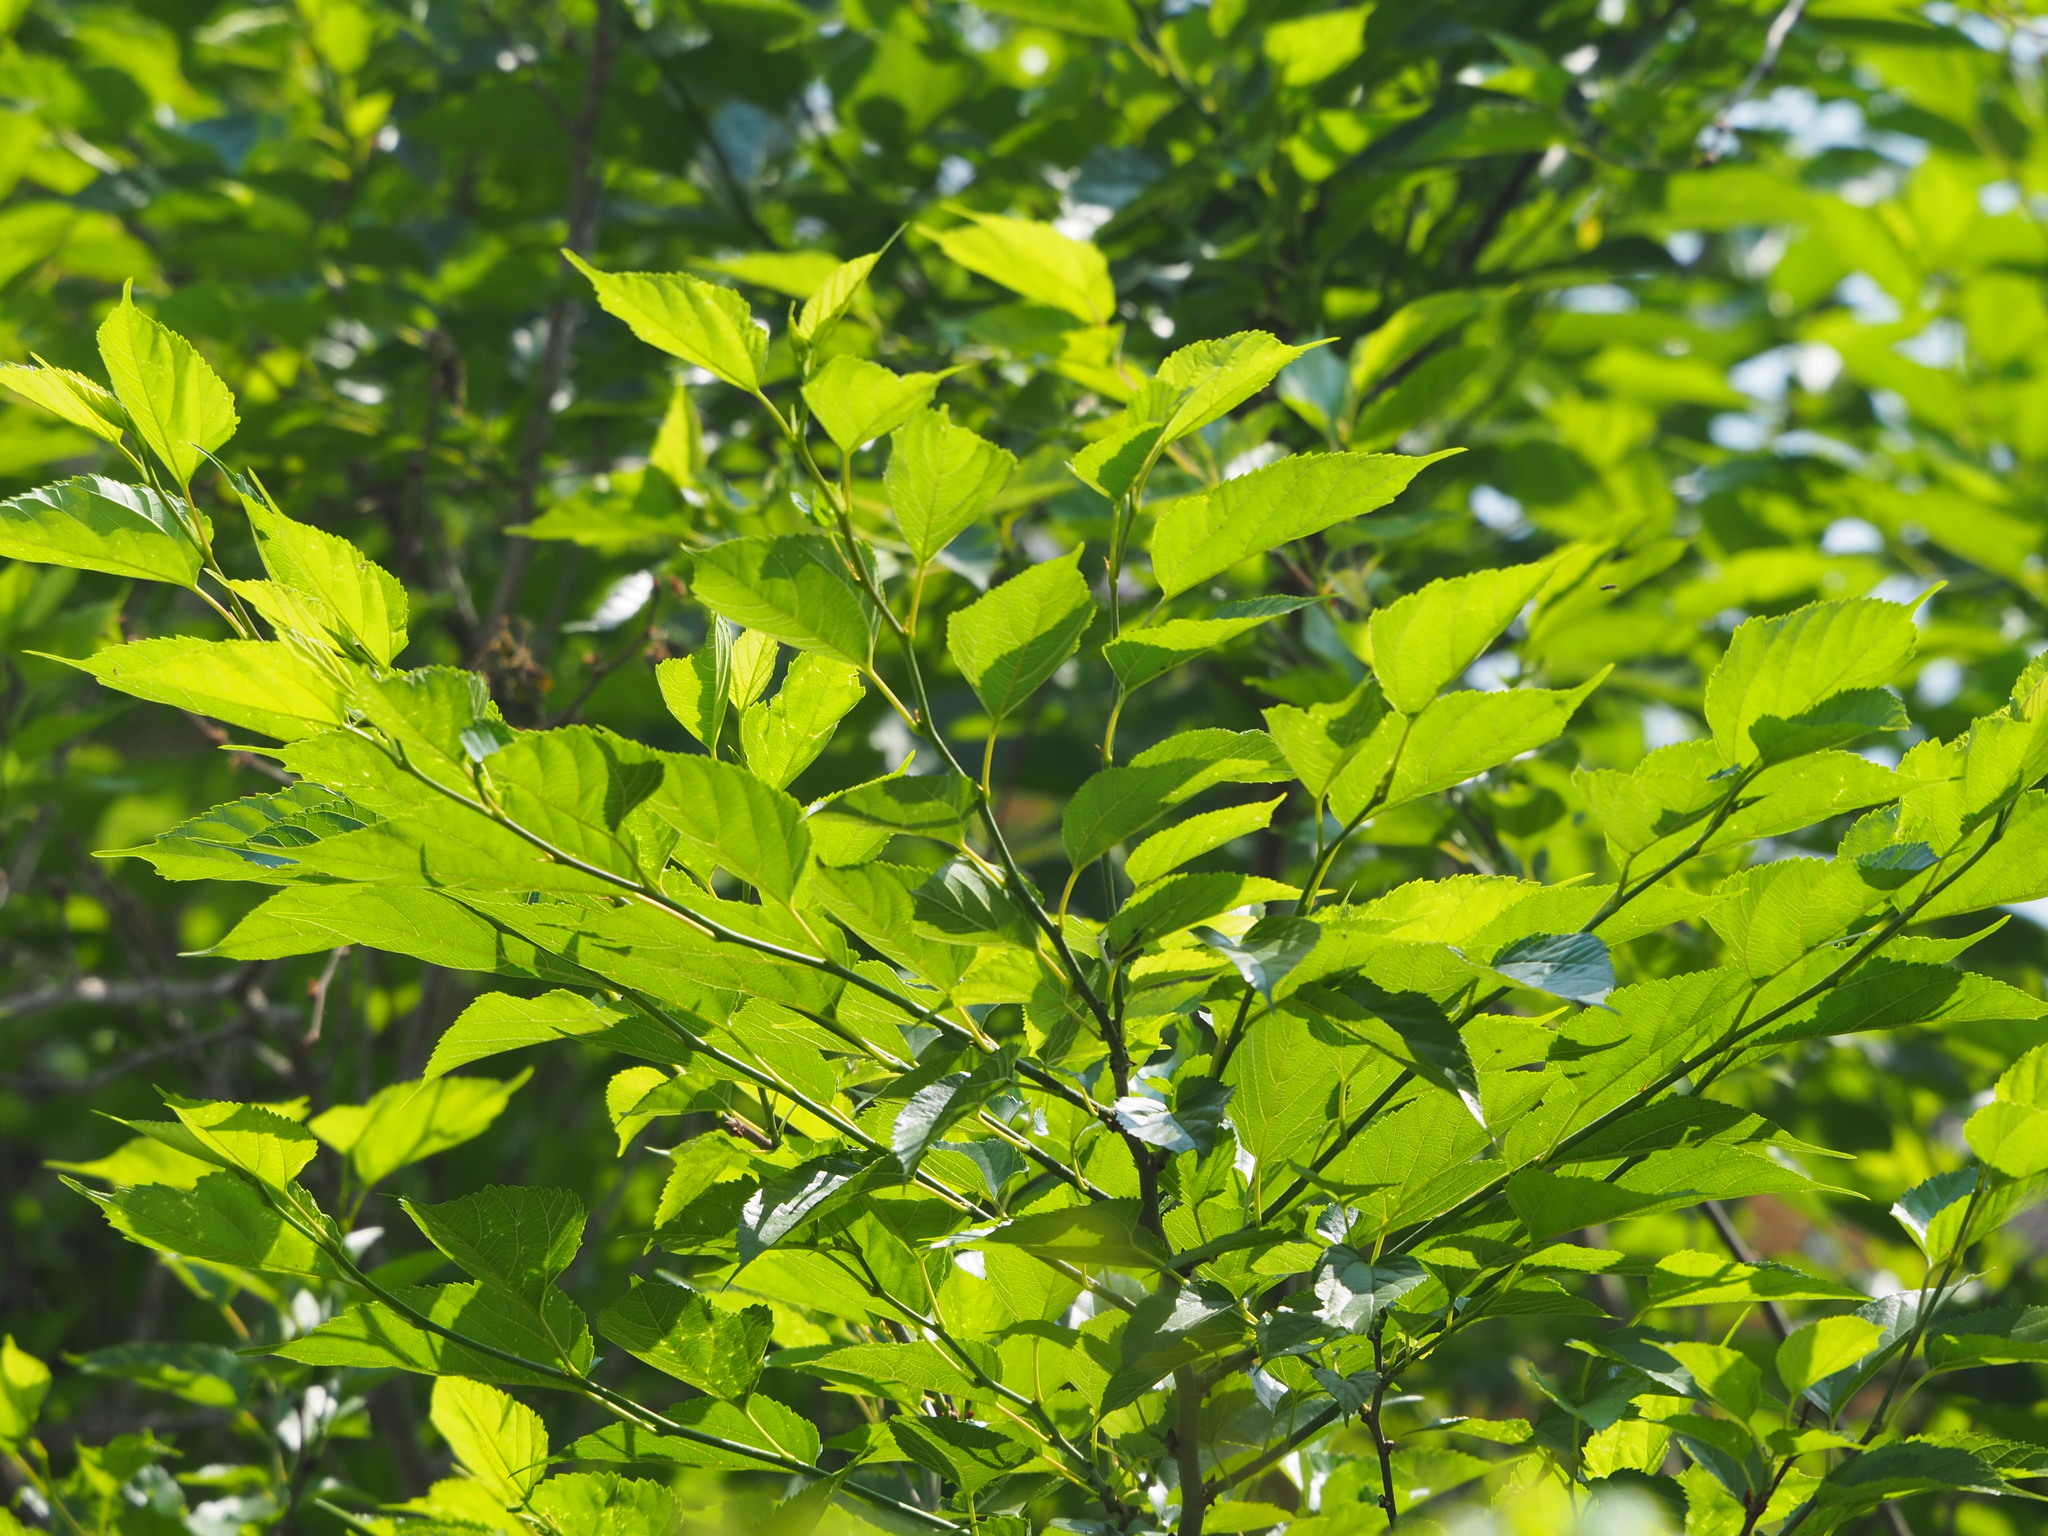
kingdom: Plantae
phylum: Tracheophyta
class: Magnoliopsida
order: Rosales
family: Moraceae
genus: Morus
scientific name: Morus indica
